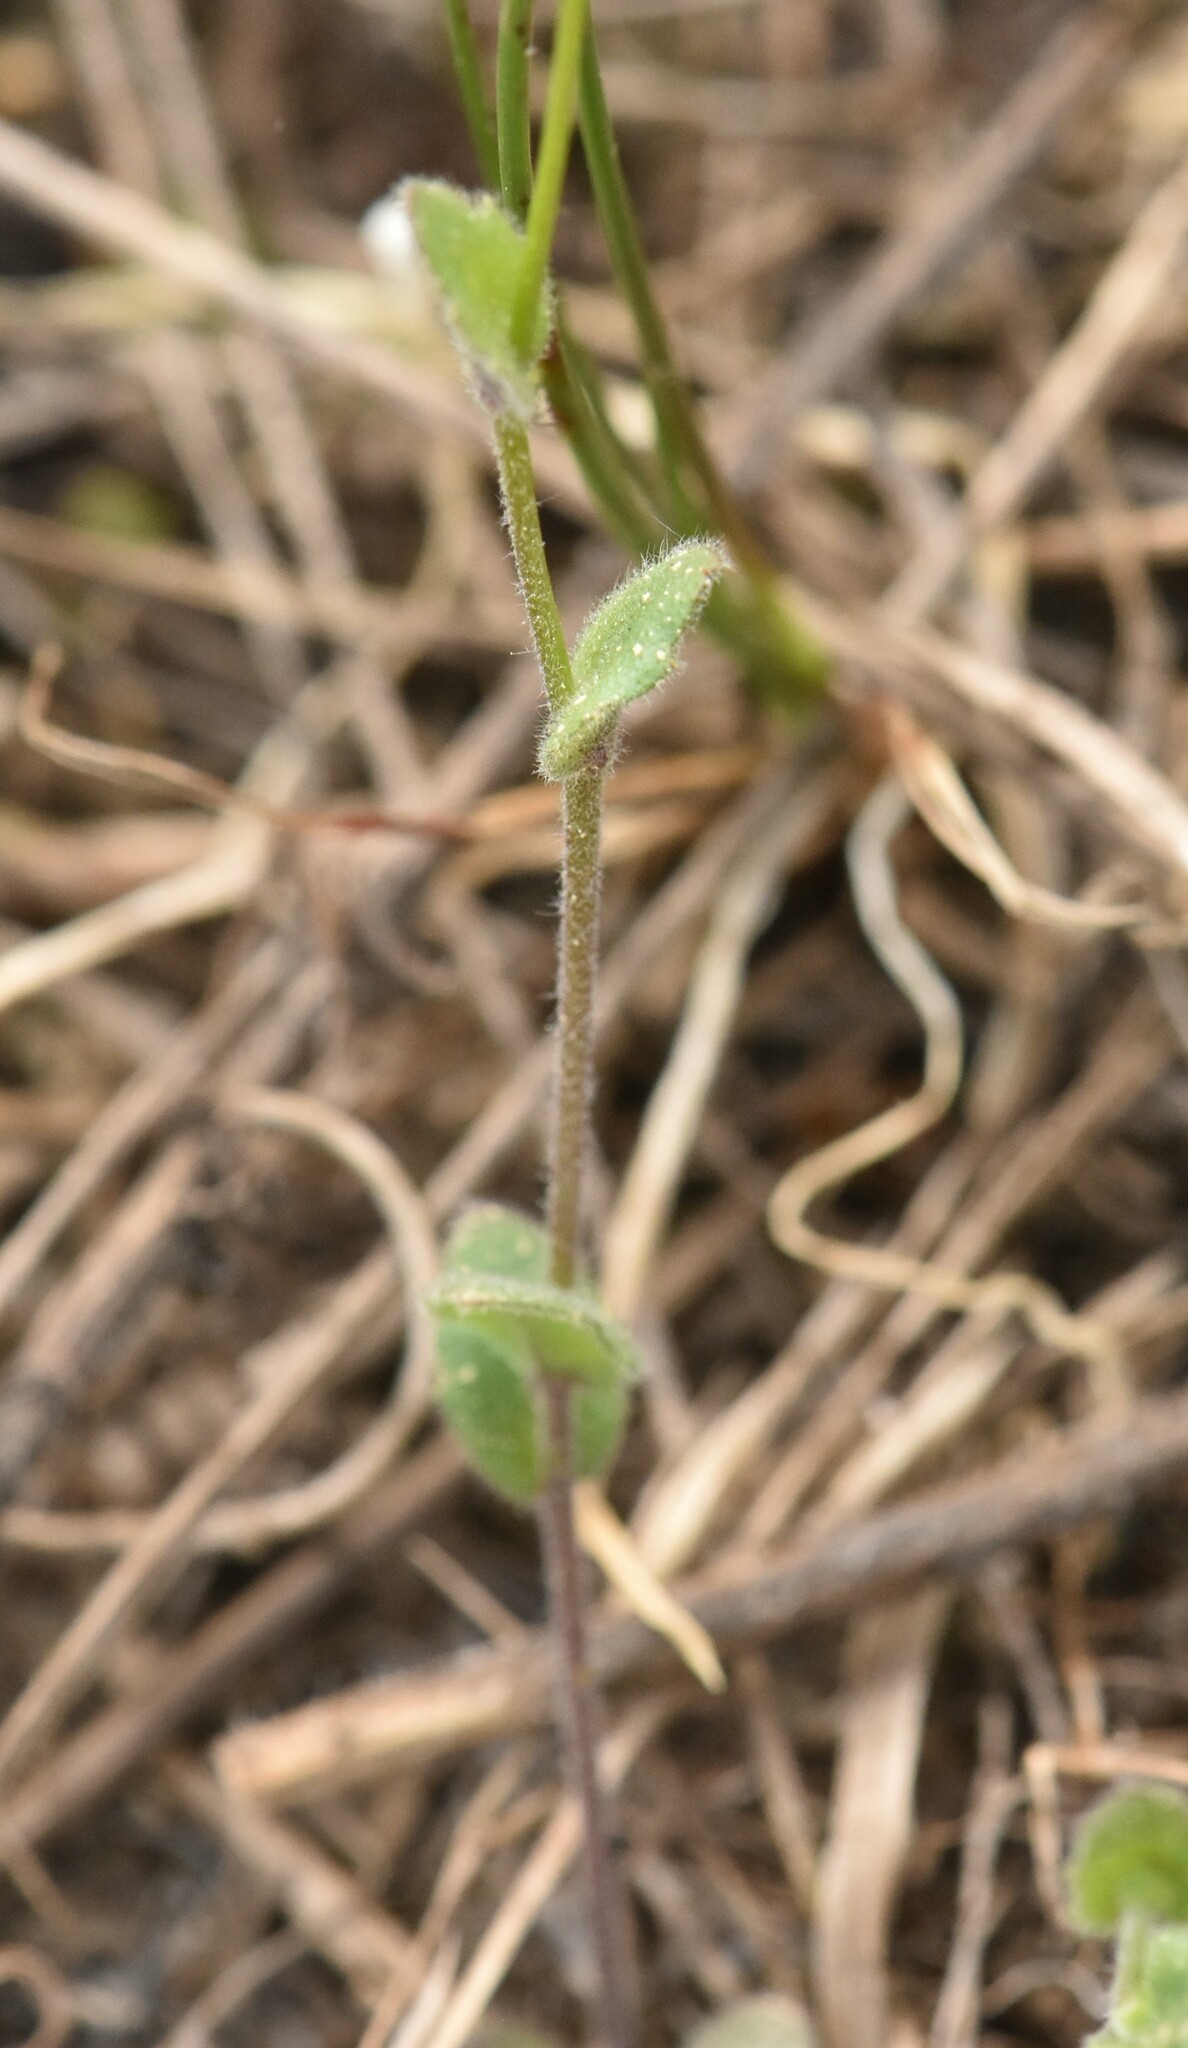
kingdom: Plantae
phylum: Tracheophyta
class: Magnoliopsida
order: Brassicales
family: Brassicaceae
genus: Draba
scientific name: Draba nemorosa
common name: Wood whitlow-grass
